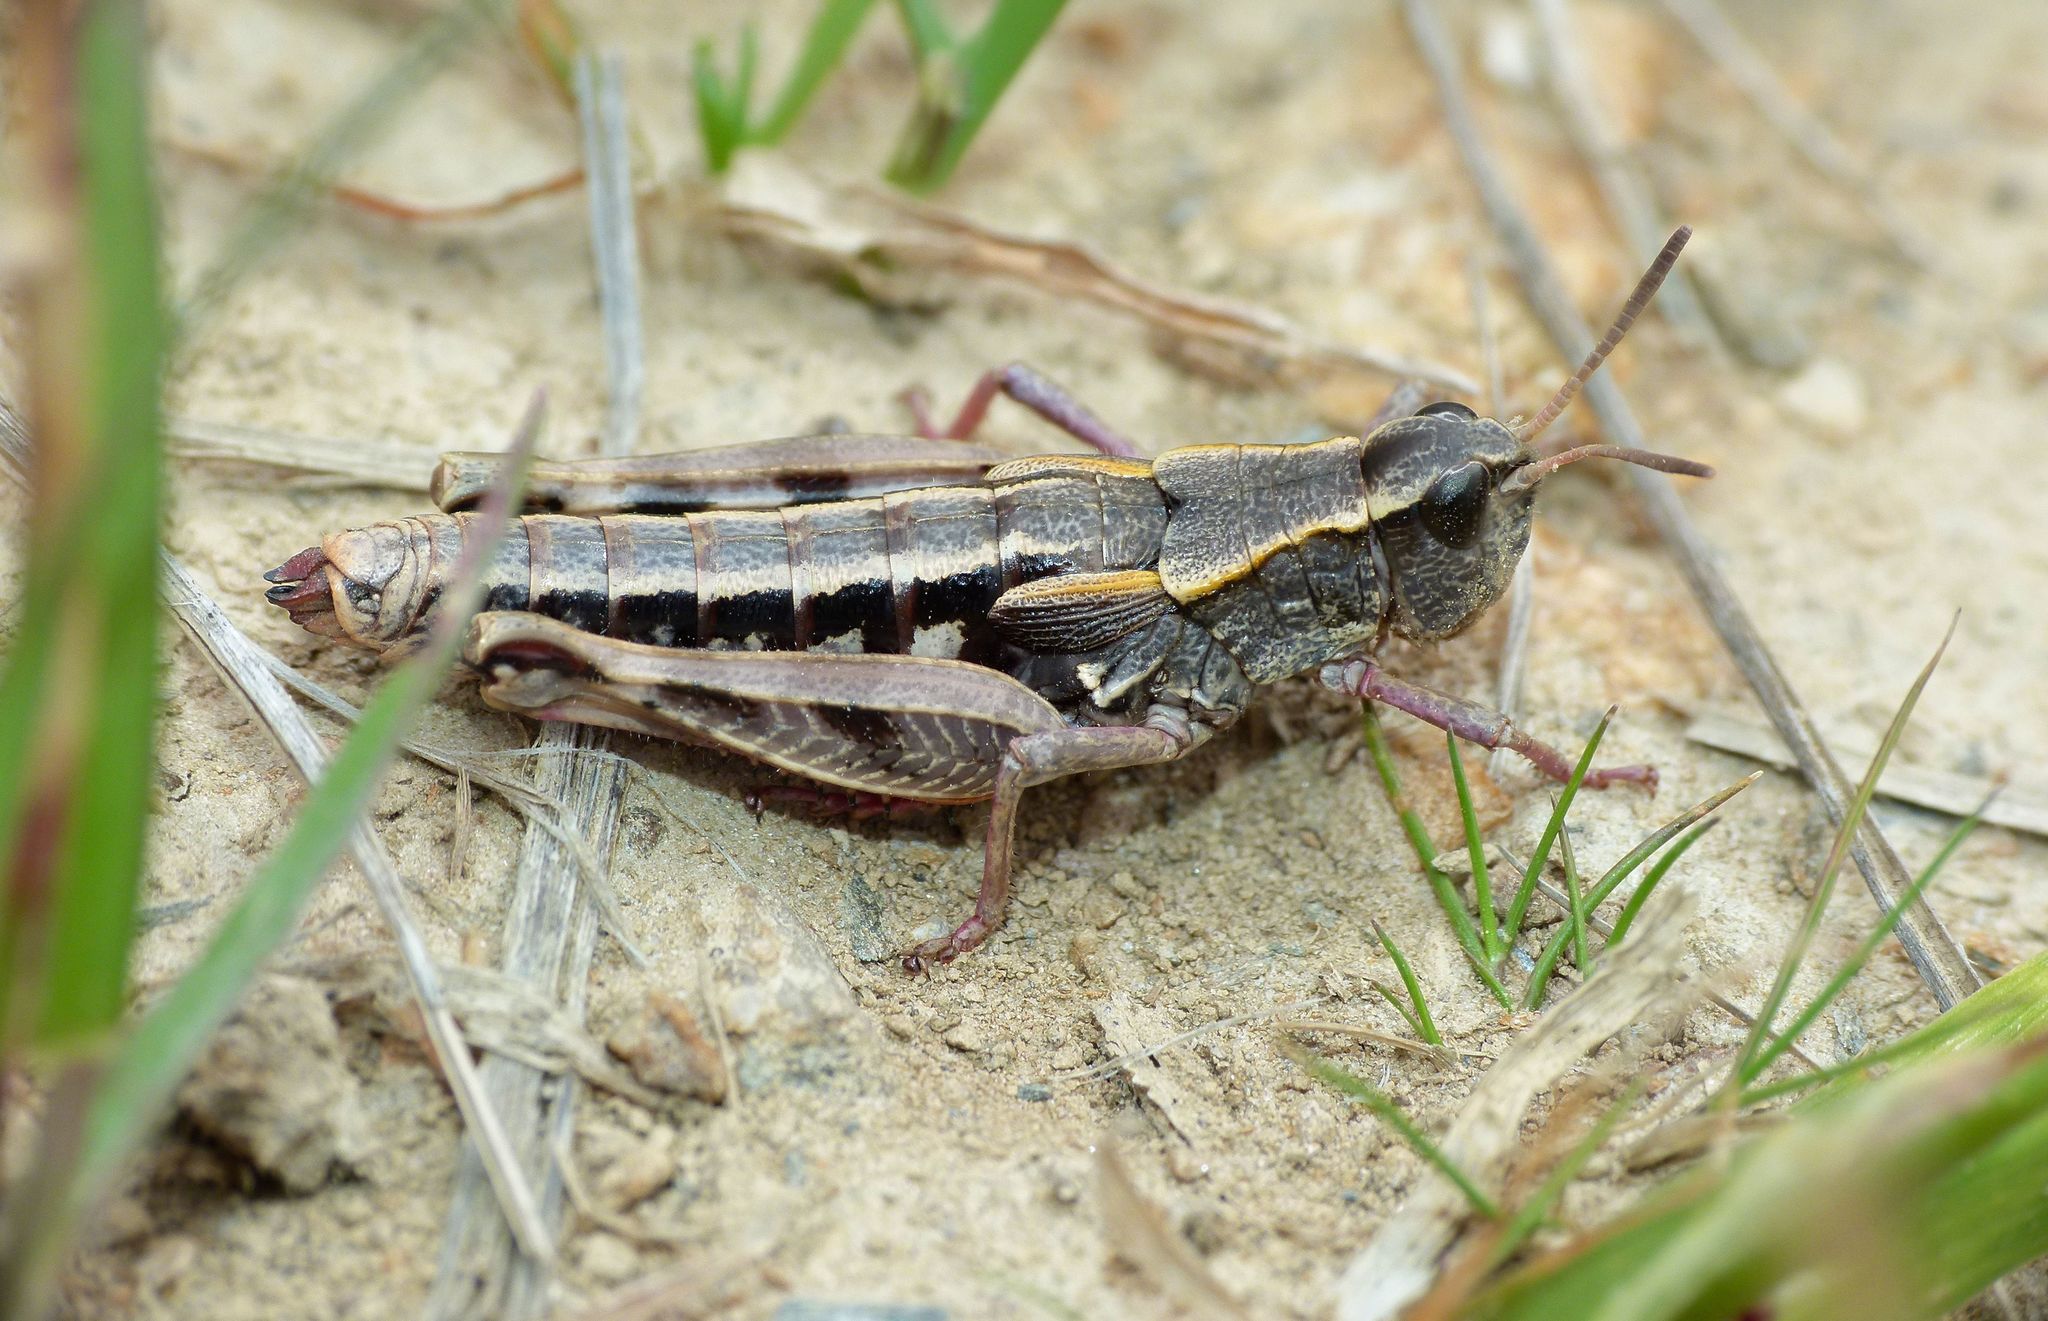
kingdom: Animalia
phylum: Arthropoda
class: Insecta
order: Orthoptera
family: Acrididae
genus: Sigaus
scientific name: Sigaus australis
